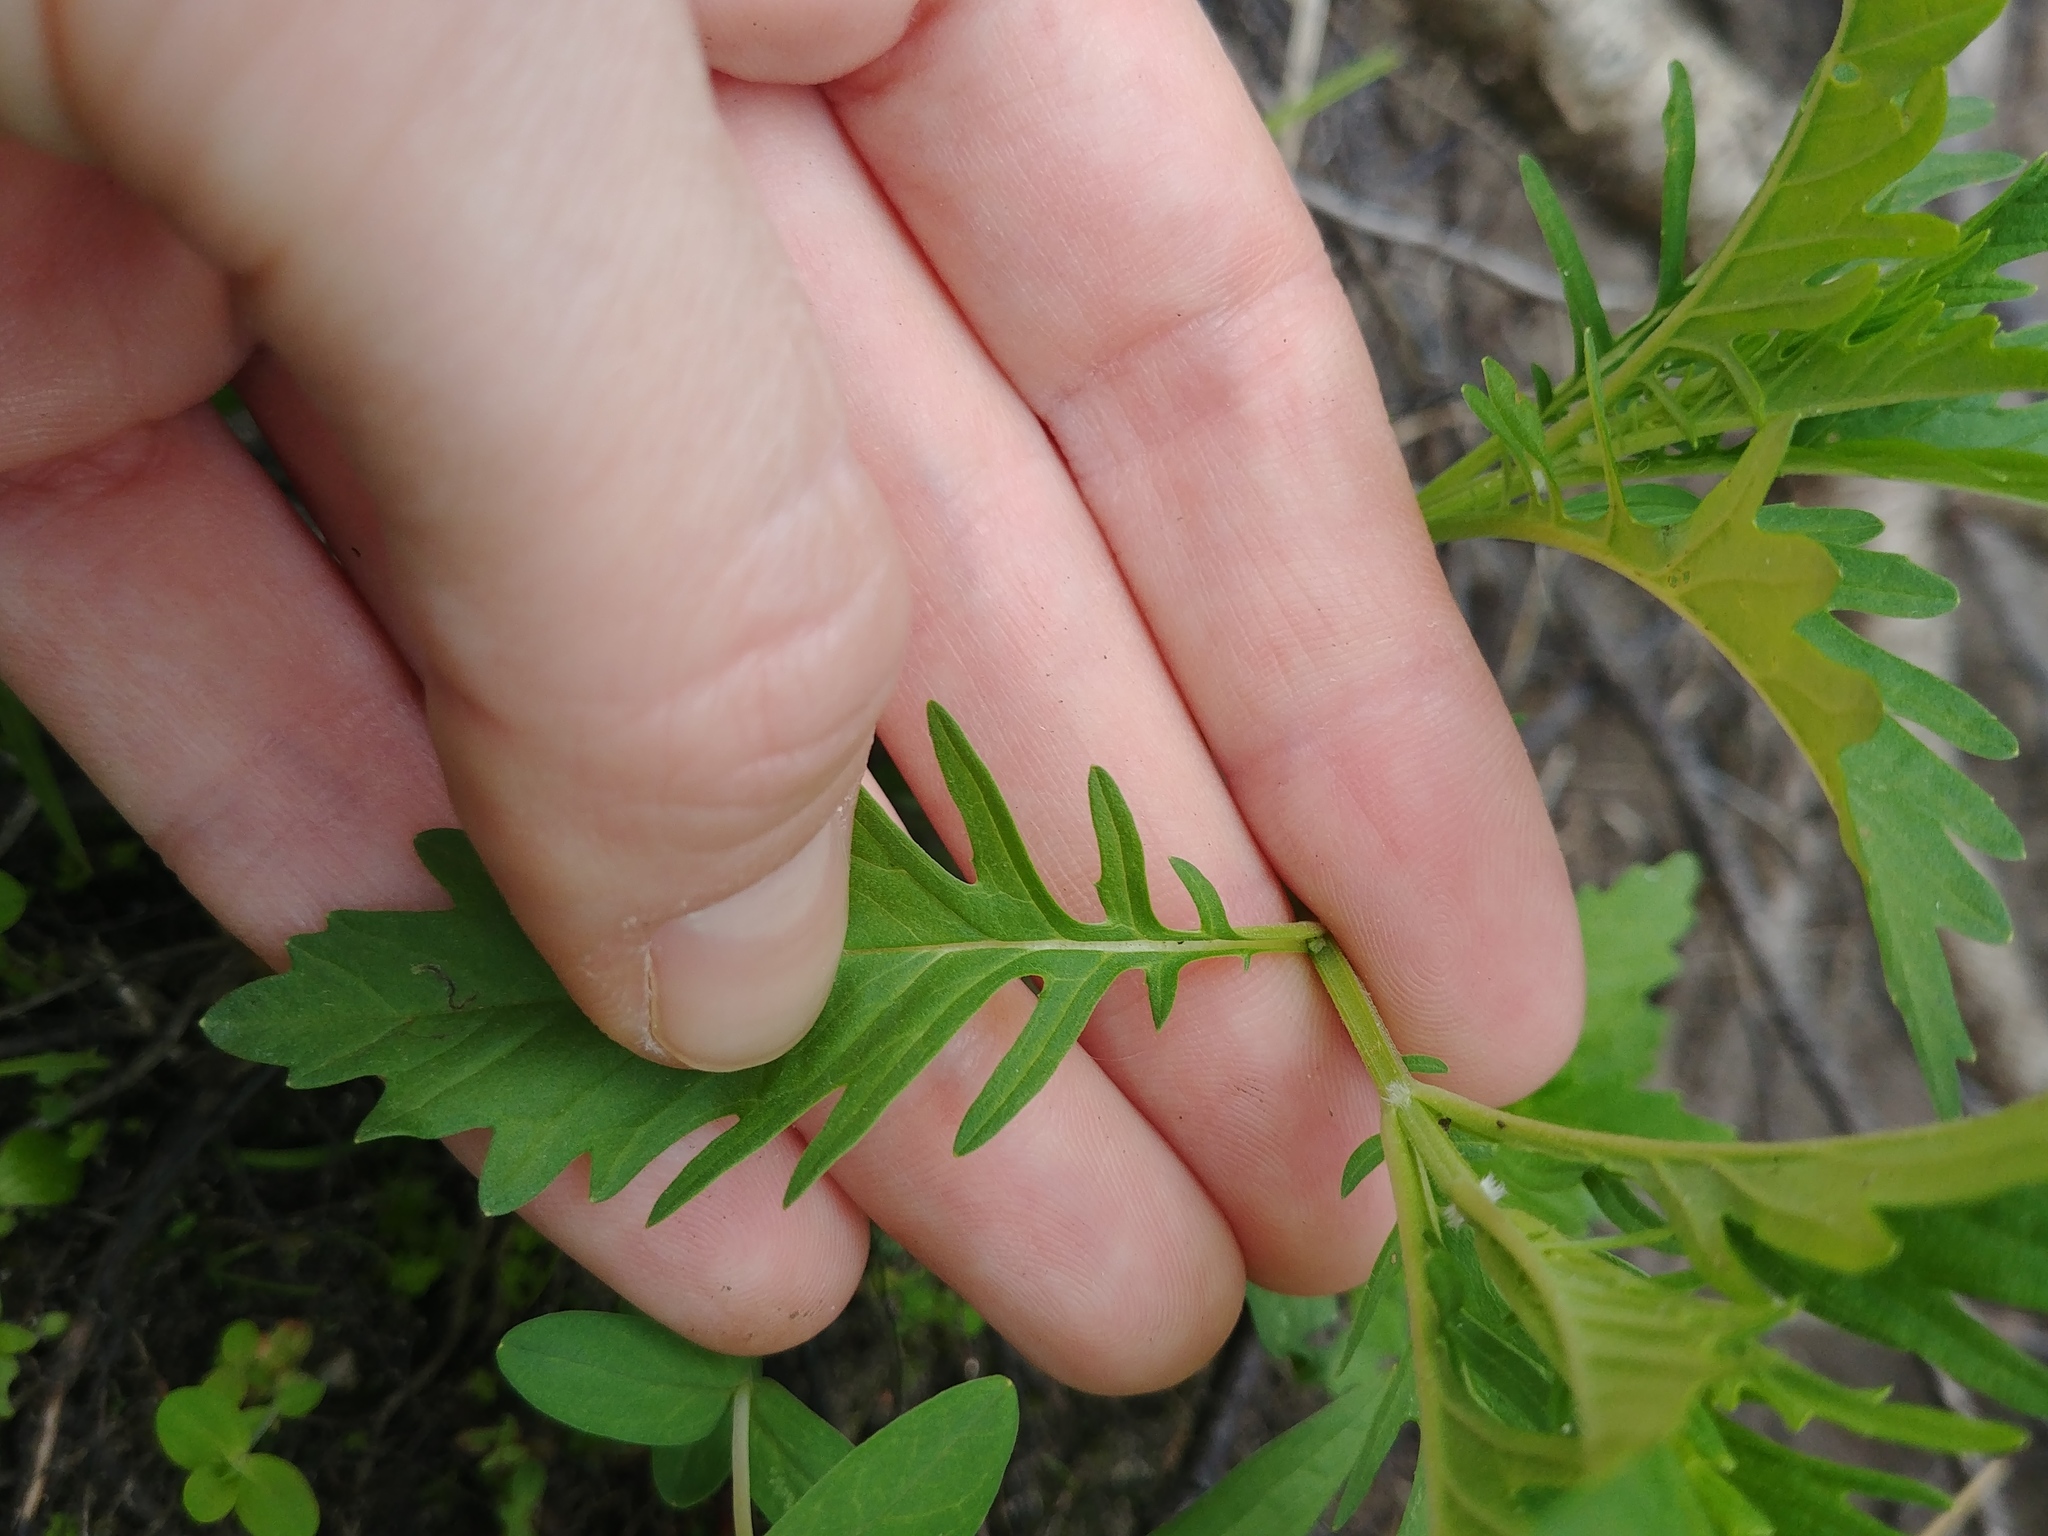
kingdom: Plantae
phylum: Tracheophyta
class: Magnoliopsida
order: Lamiales
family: Lamiaceae
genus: Lycopus
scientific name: Lycopus americanus
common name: American bugleweed
